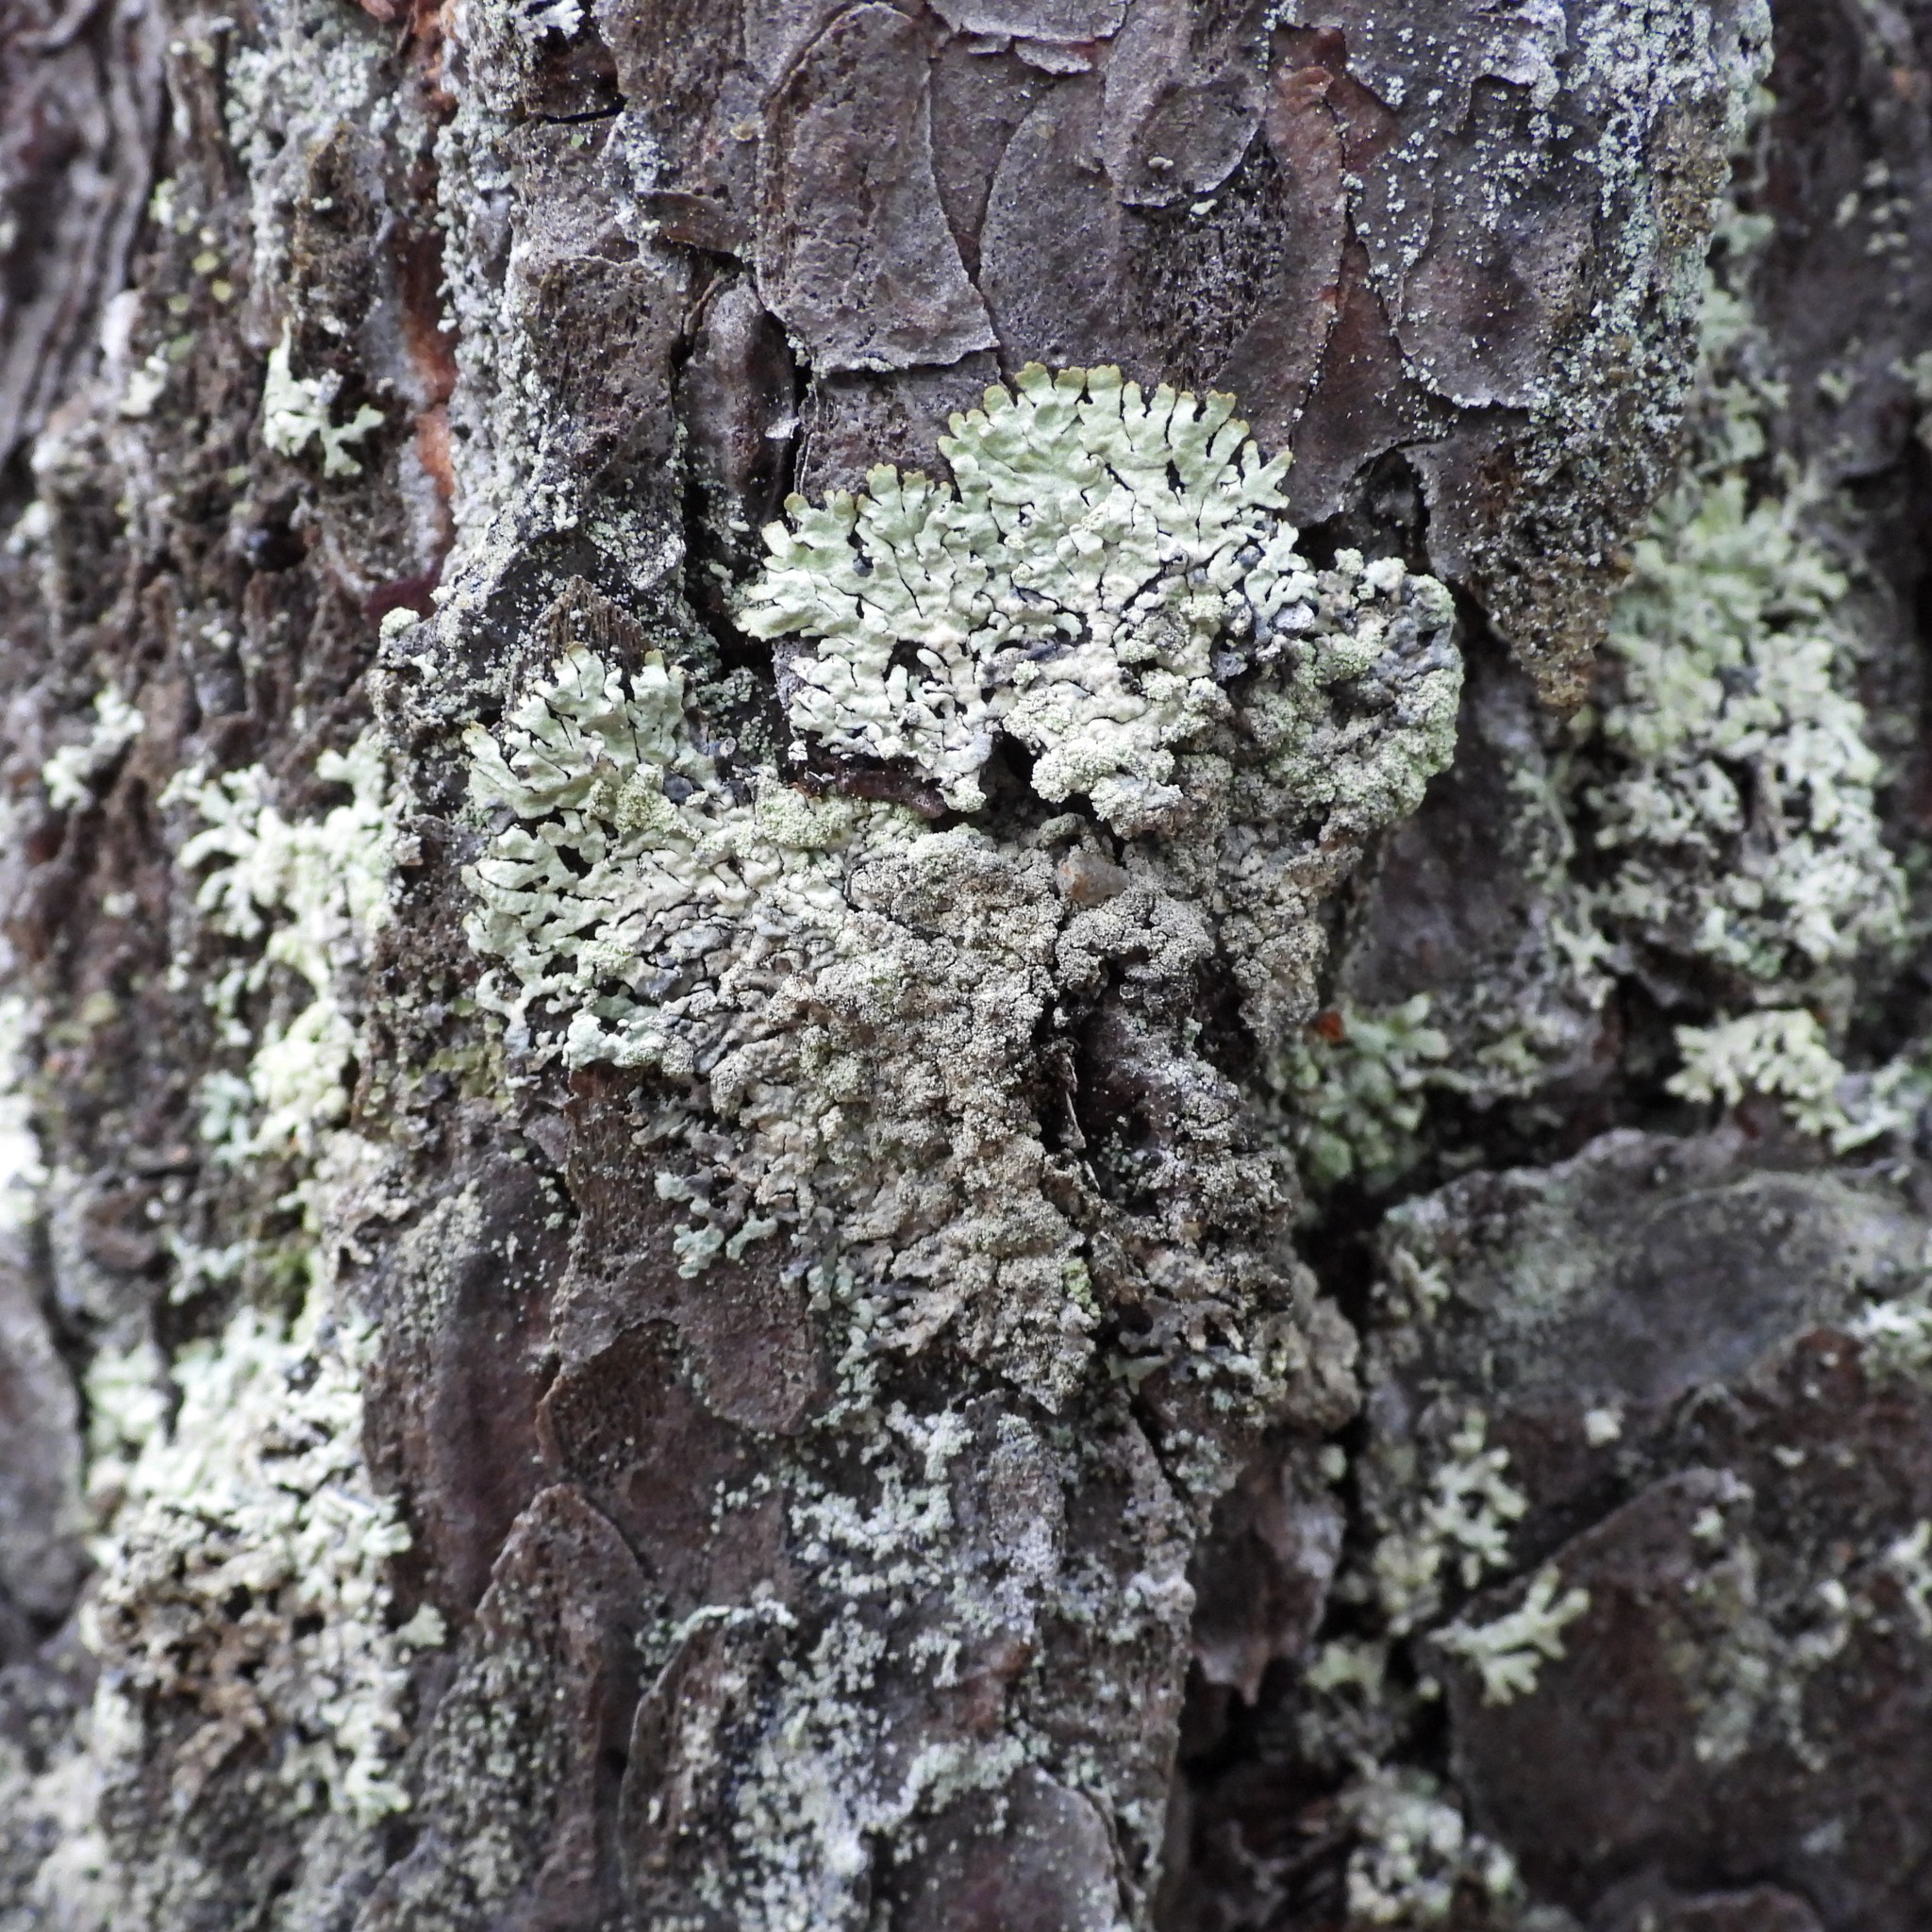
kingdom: Fungi
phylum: Ascomycota
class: Lecanoromycetes
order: Lecanorales
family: Parmeliaceae
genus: Parmeliopsis
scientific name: Parmeliopsis ambigua
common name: Green starburst lichen
